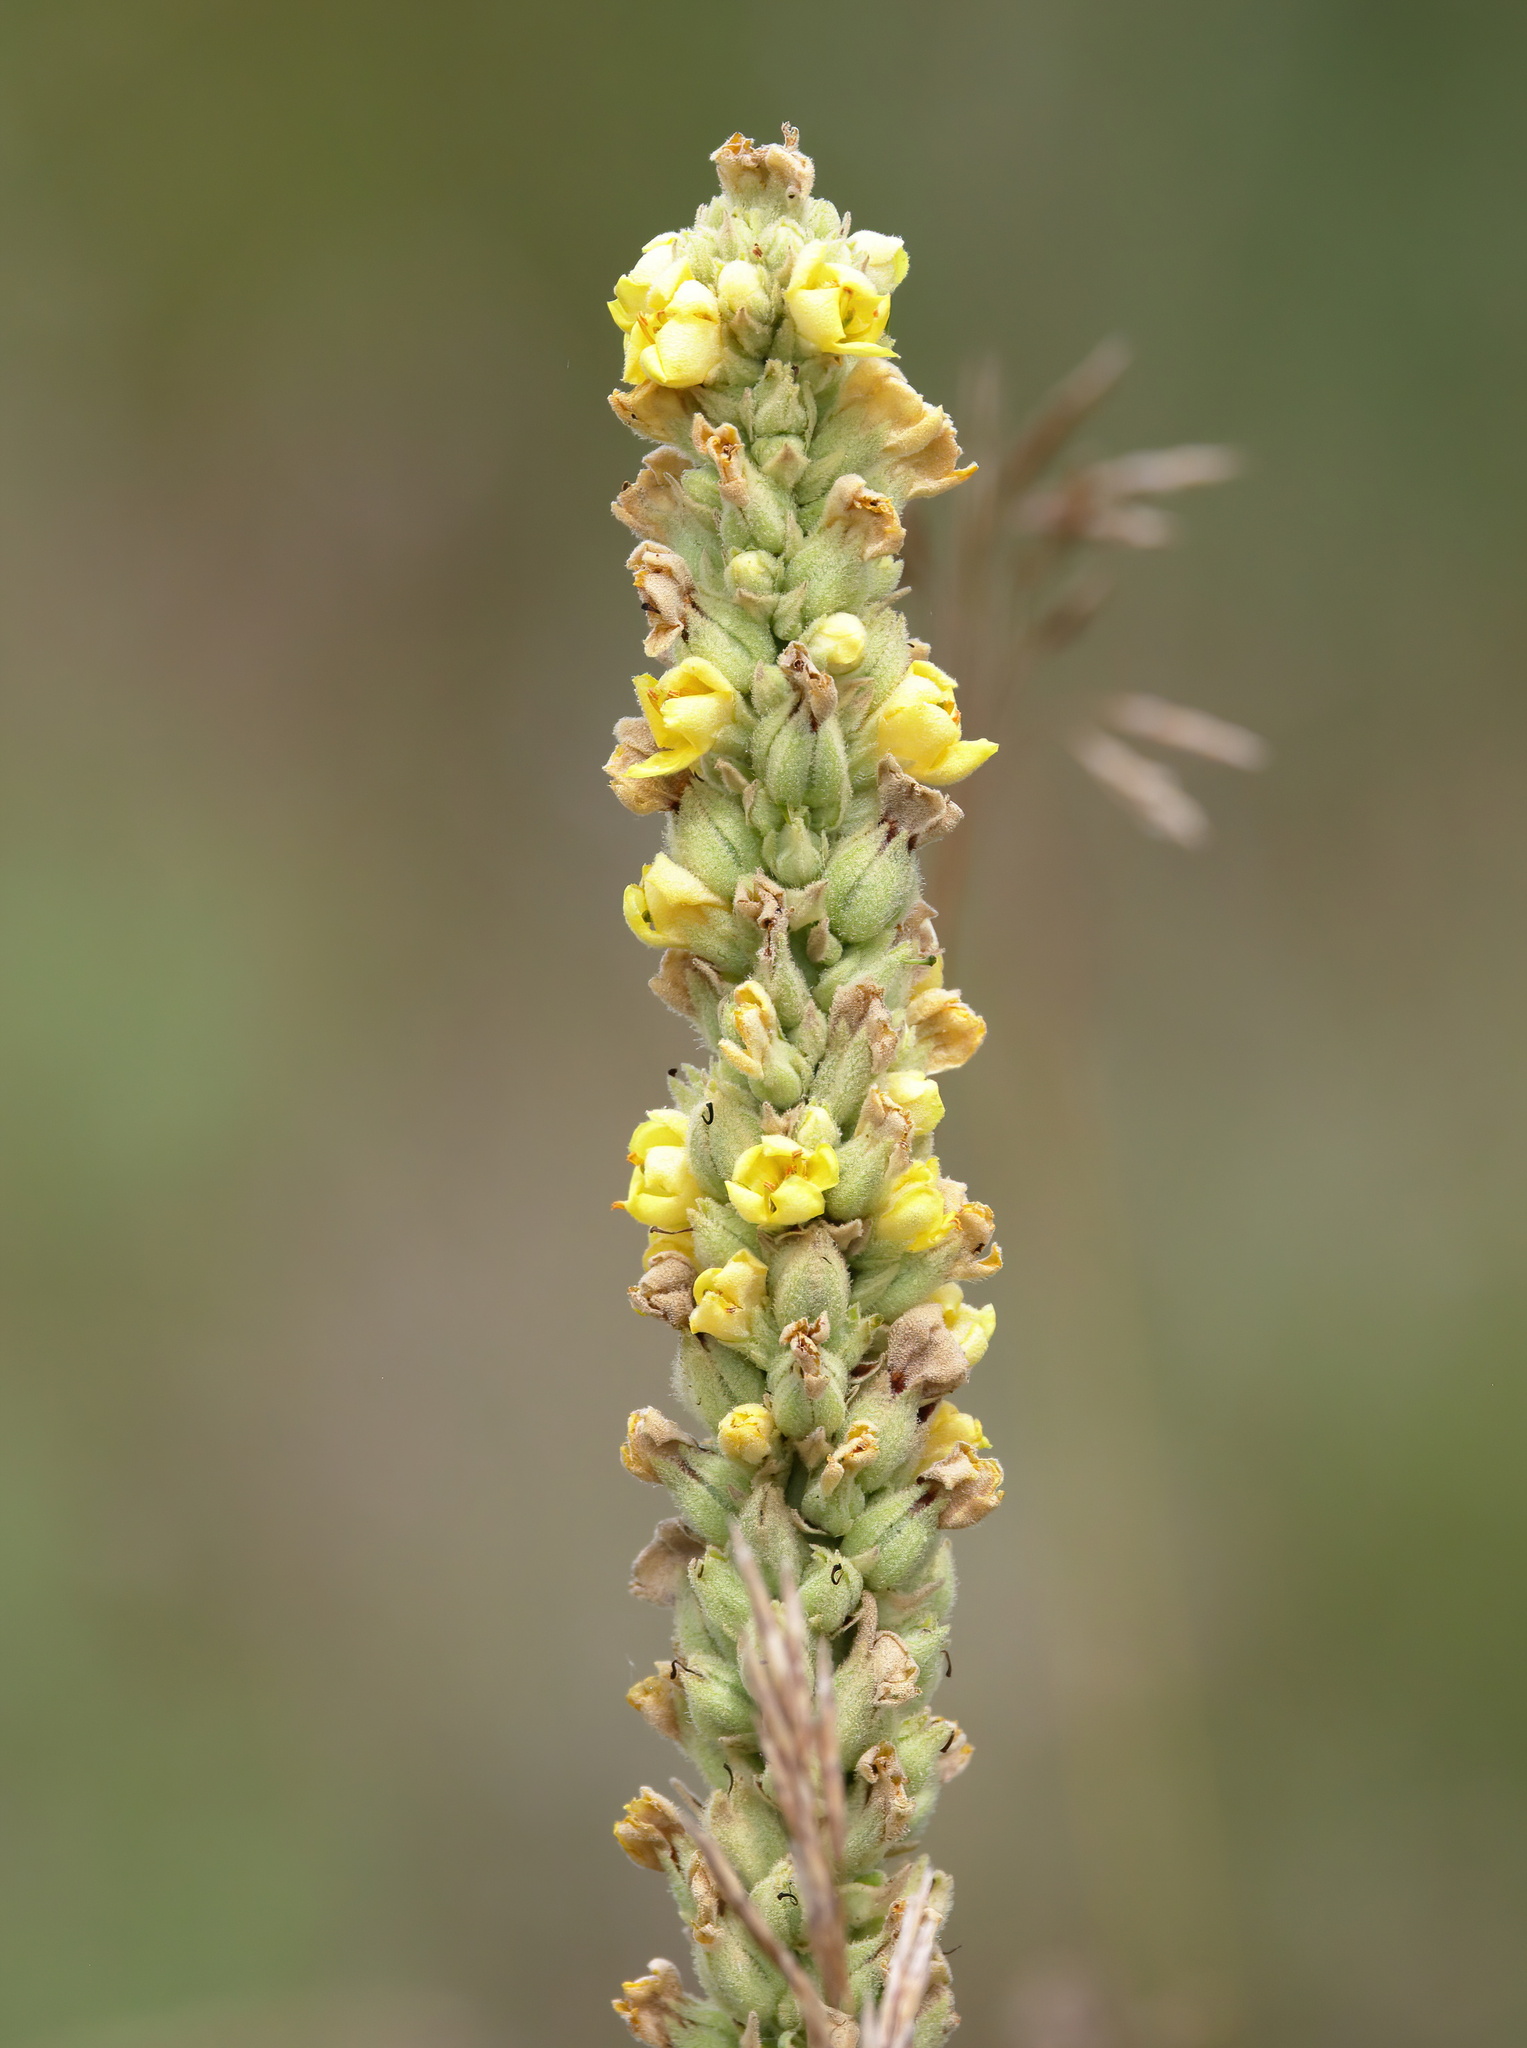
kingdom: Plantae
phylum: Tracheophyta
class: Magnoliopsida
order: Lamiales
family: Scrophulariaceae
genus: Verbascum
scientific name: Verbascum thapsus
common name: Common mullein
